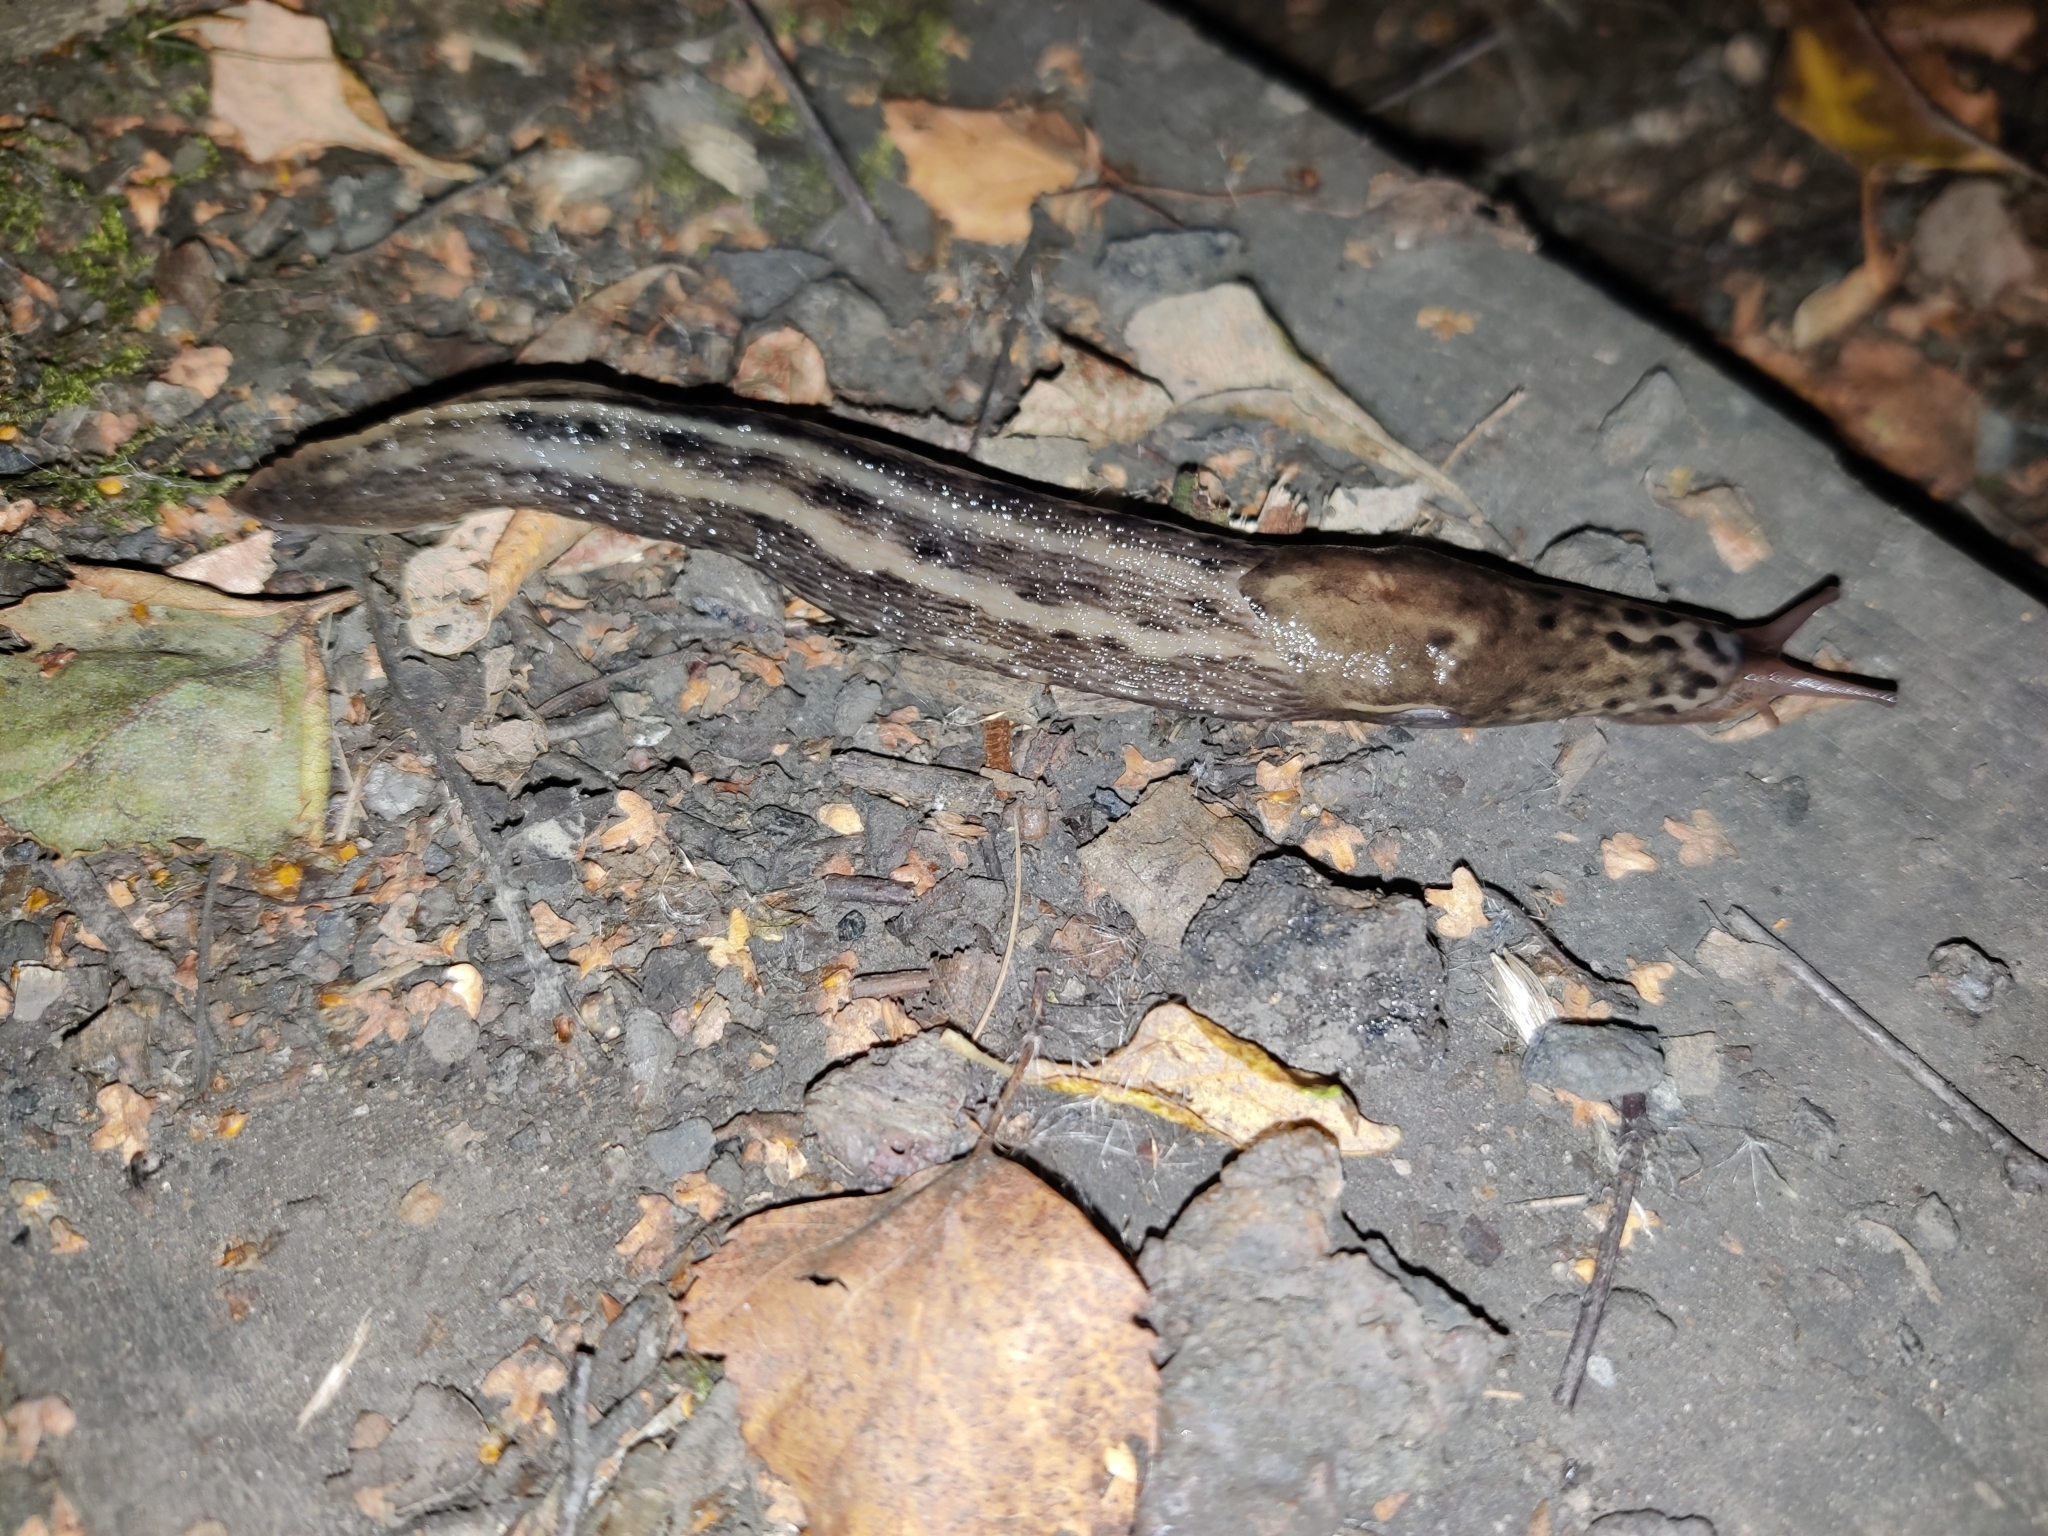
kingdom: Animalia
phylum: Mollusca
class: Gastropoda
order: Stylommatophora
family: Limacidae
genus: Limax
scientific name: Limax maximus
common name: Great grey slug
